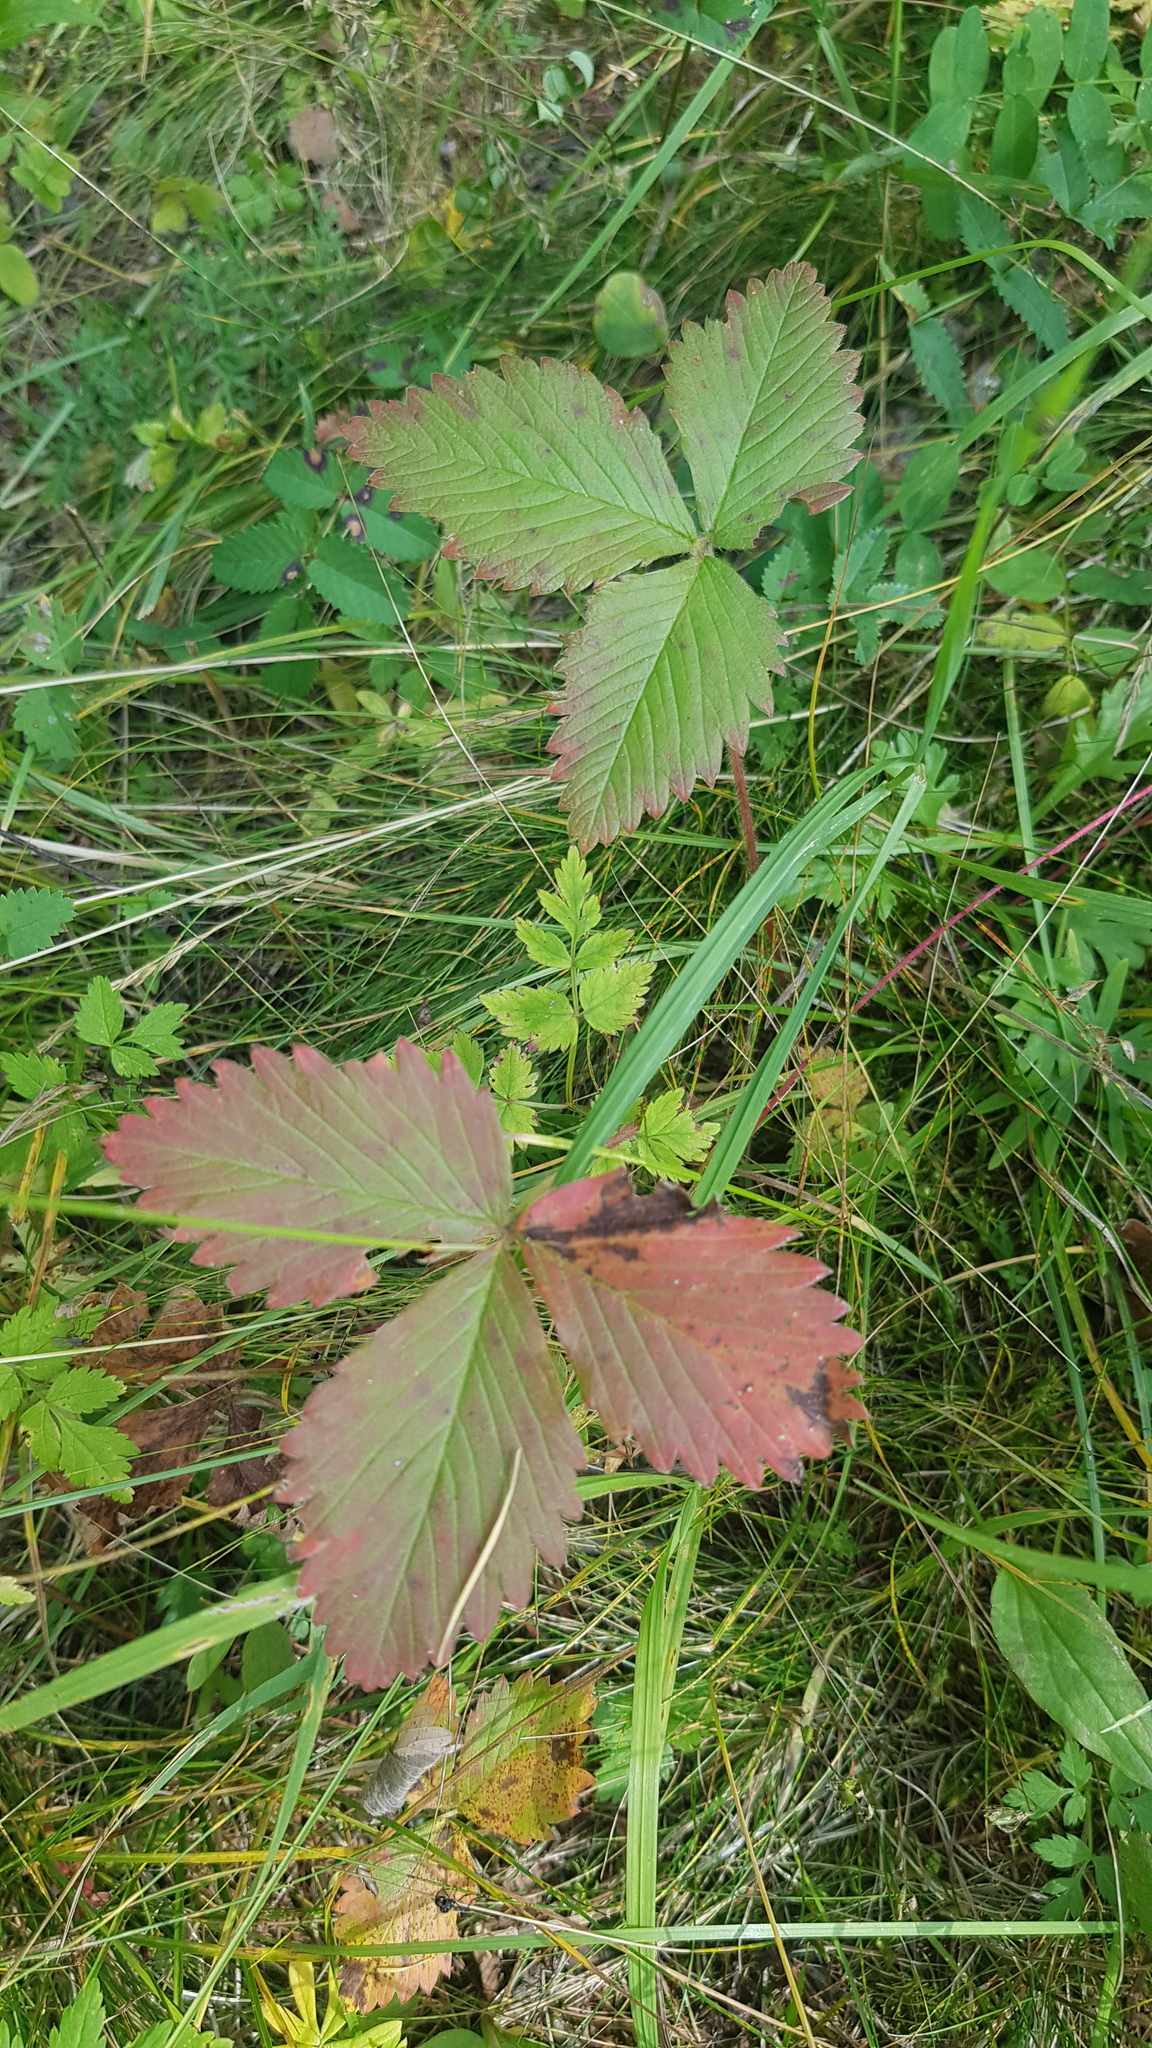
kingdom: Plantae
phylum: Tracheophyta
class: Magnoliopsida
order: Rosales
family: Rosaceae
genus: Fragaria
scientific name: Fragaria orientalis
